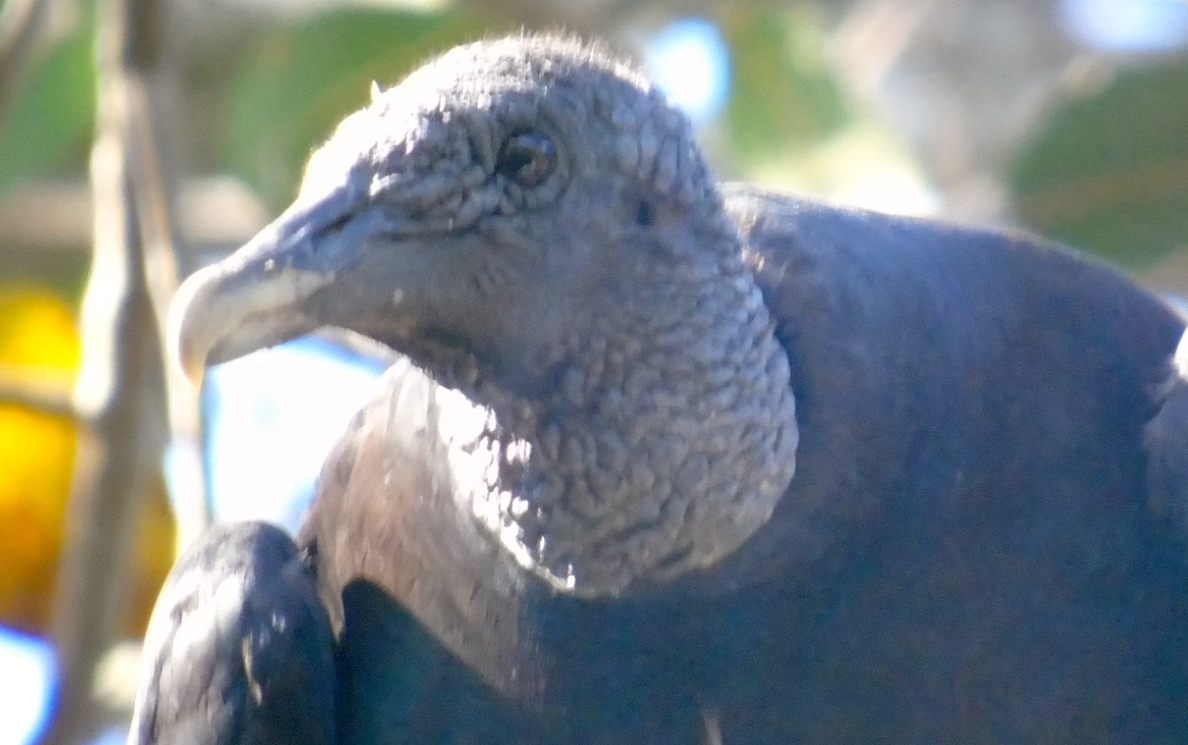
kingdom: Animalia
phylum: Chordata
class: Aves
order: Accipitriformes
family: Cathartidae
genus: Coragyps
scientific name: Coragyps atratus
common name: Black vulture
